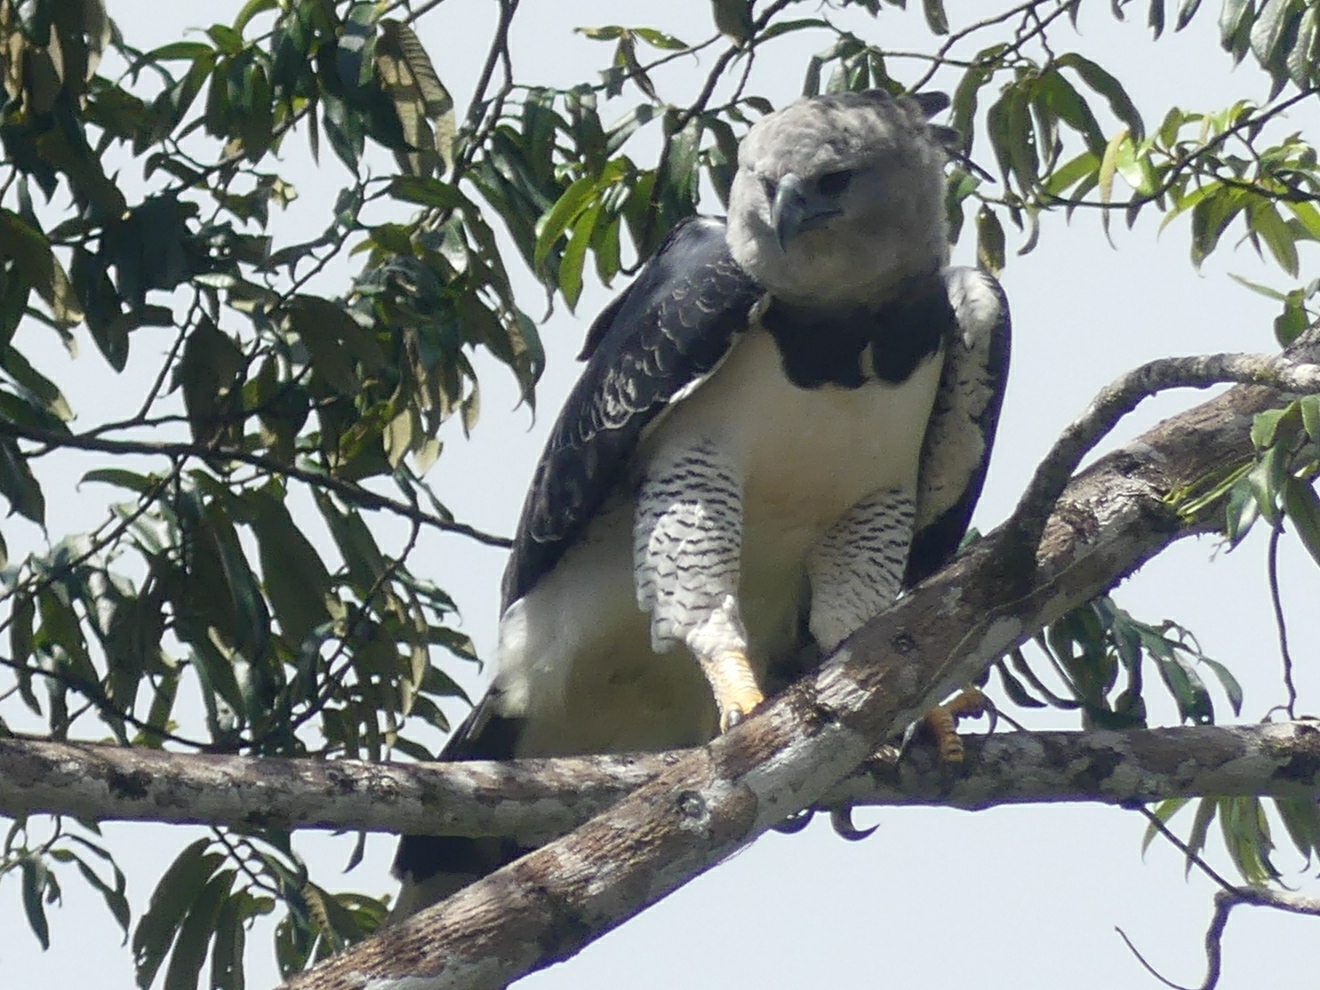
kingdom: Animalia
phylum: Chordata
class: Aves
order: Accipitriformes
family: Accipitridae
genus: Harpia
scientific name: Harpia harpyja
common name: Harpy eagle
